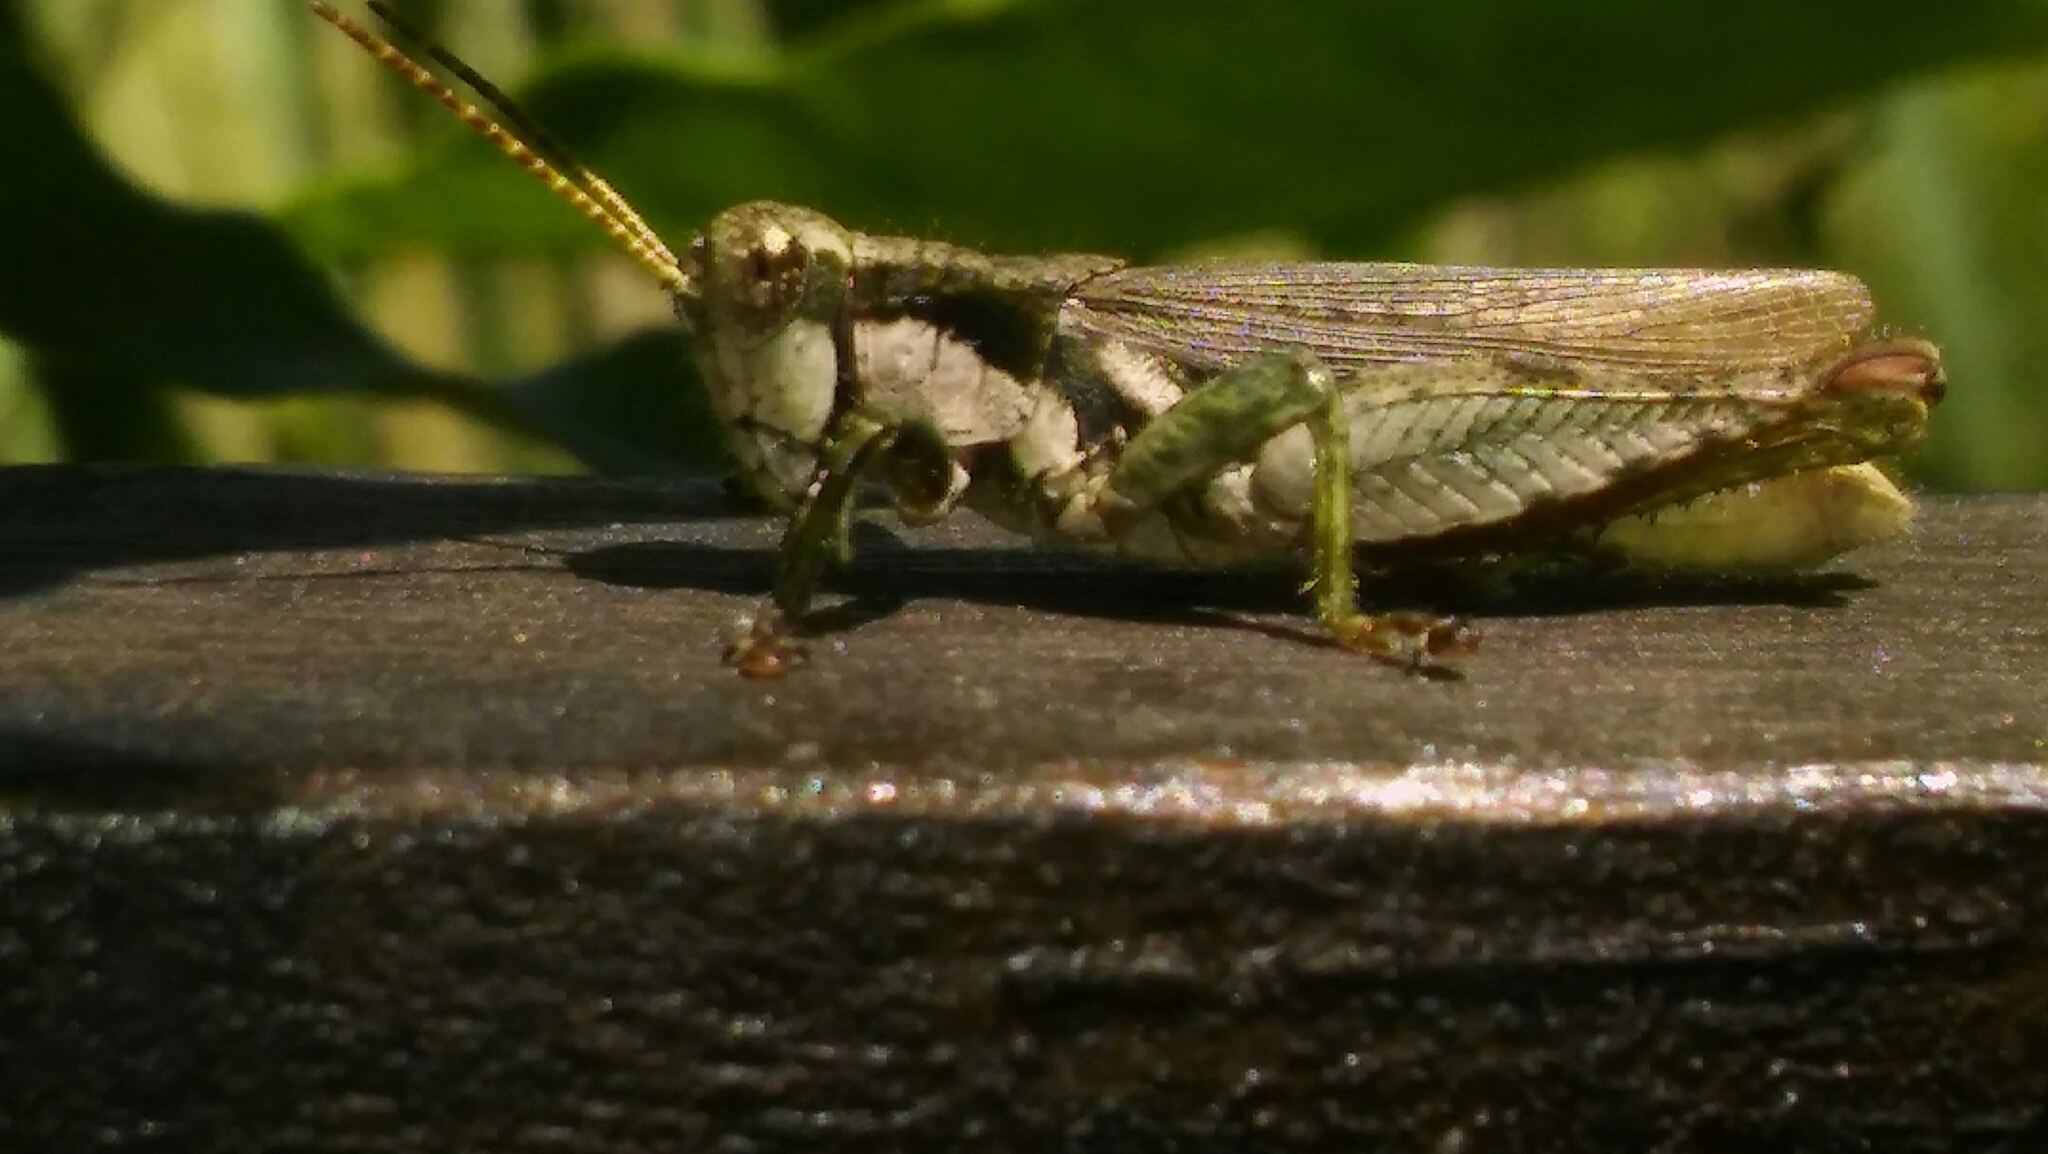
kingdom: Animalia
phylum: Arthropoda
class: Insecta
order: Orthoptera
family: Acrididae
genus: Ronderosia
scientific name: Ronderosia bergii
